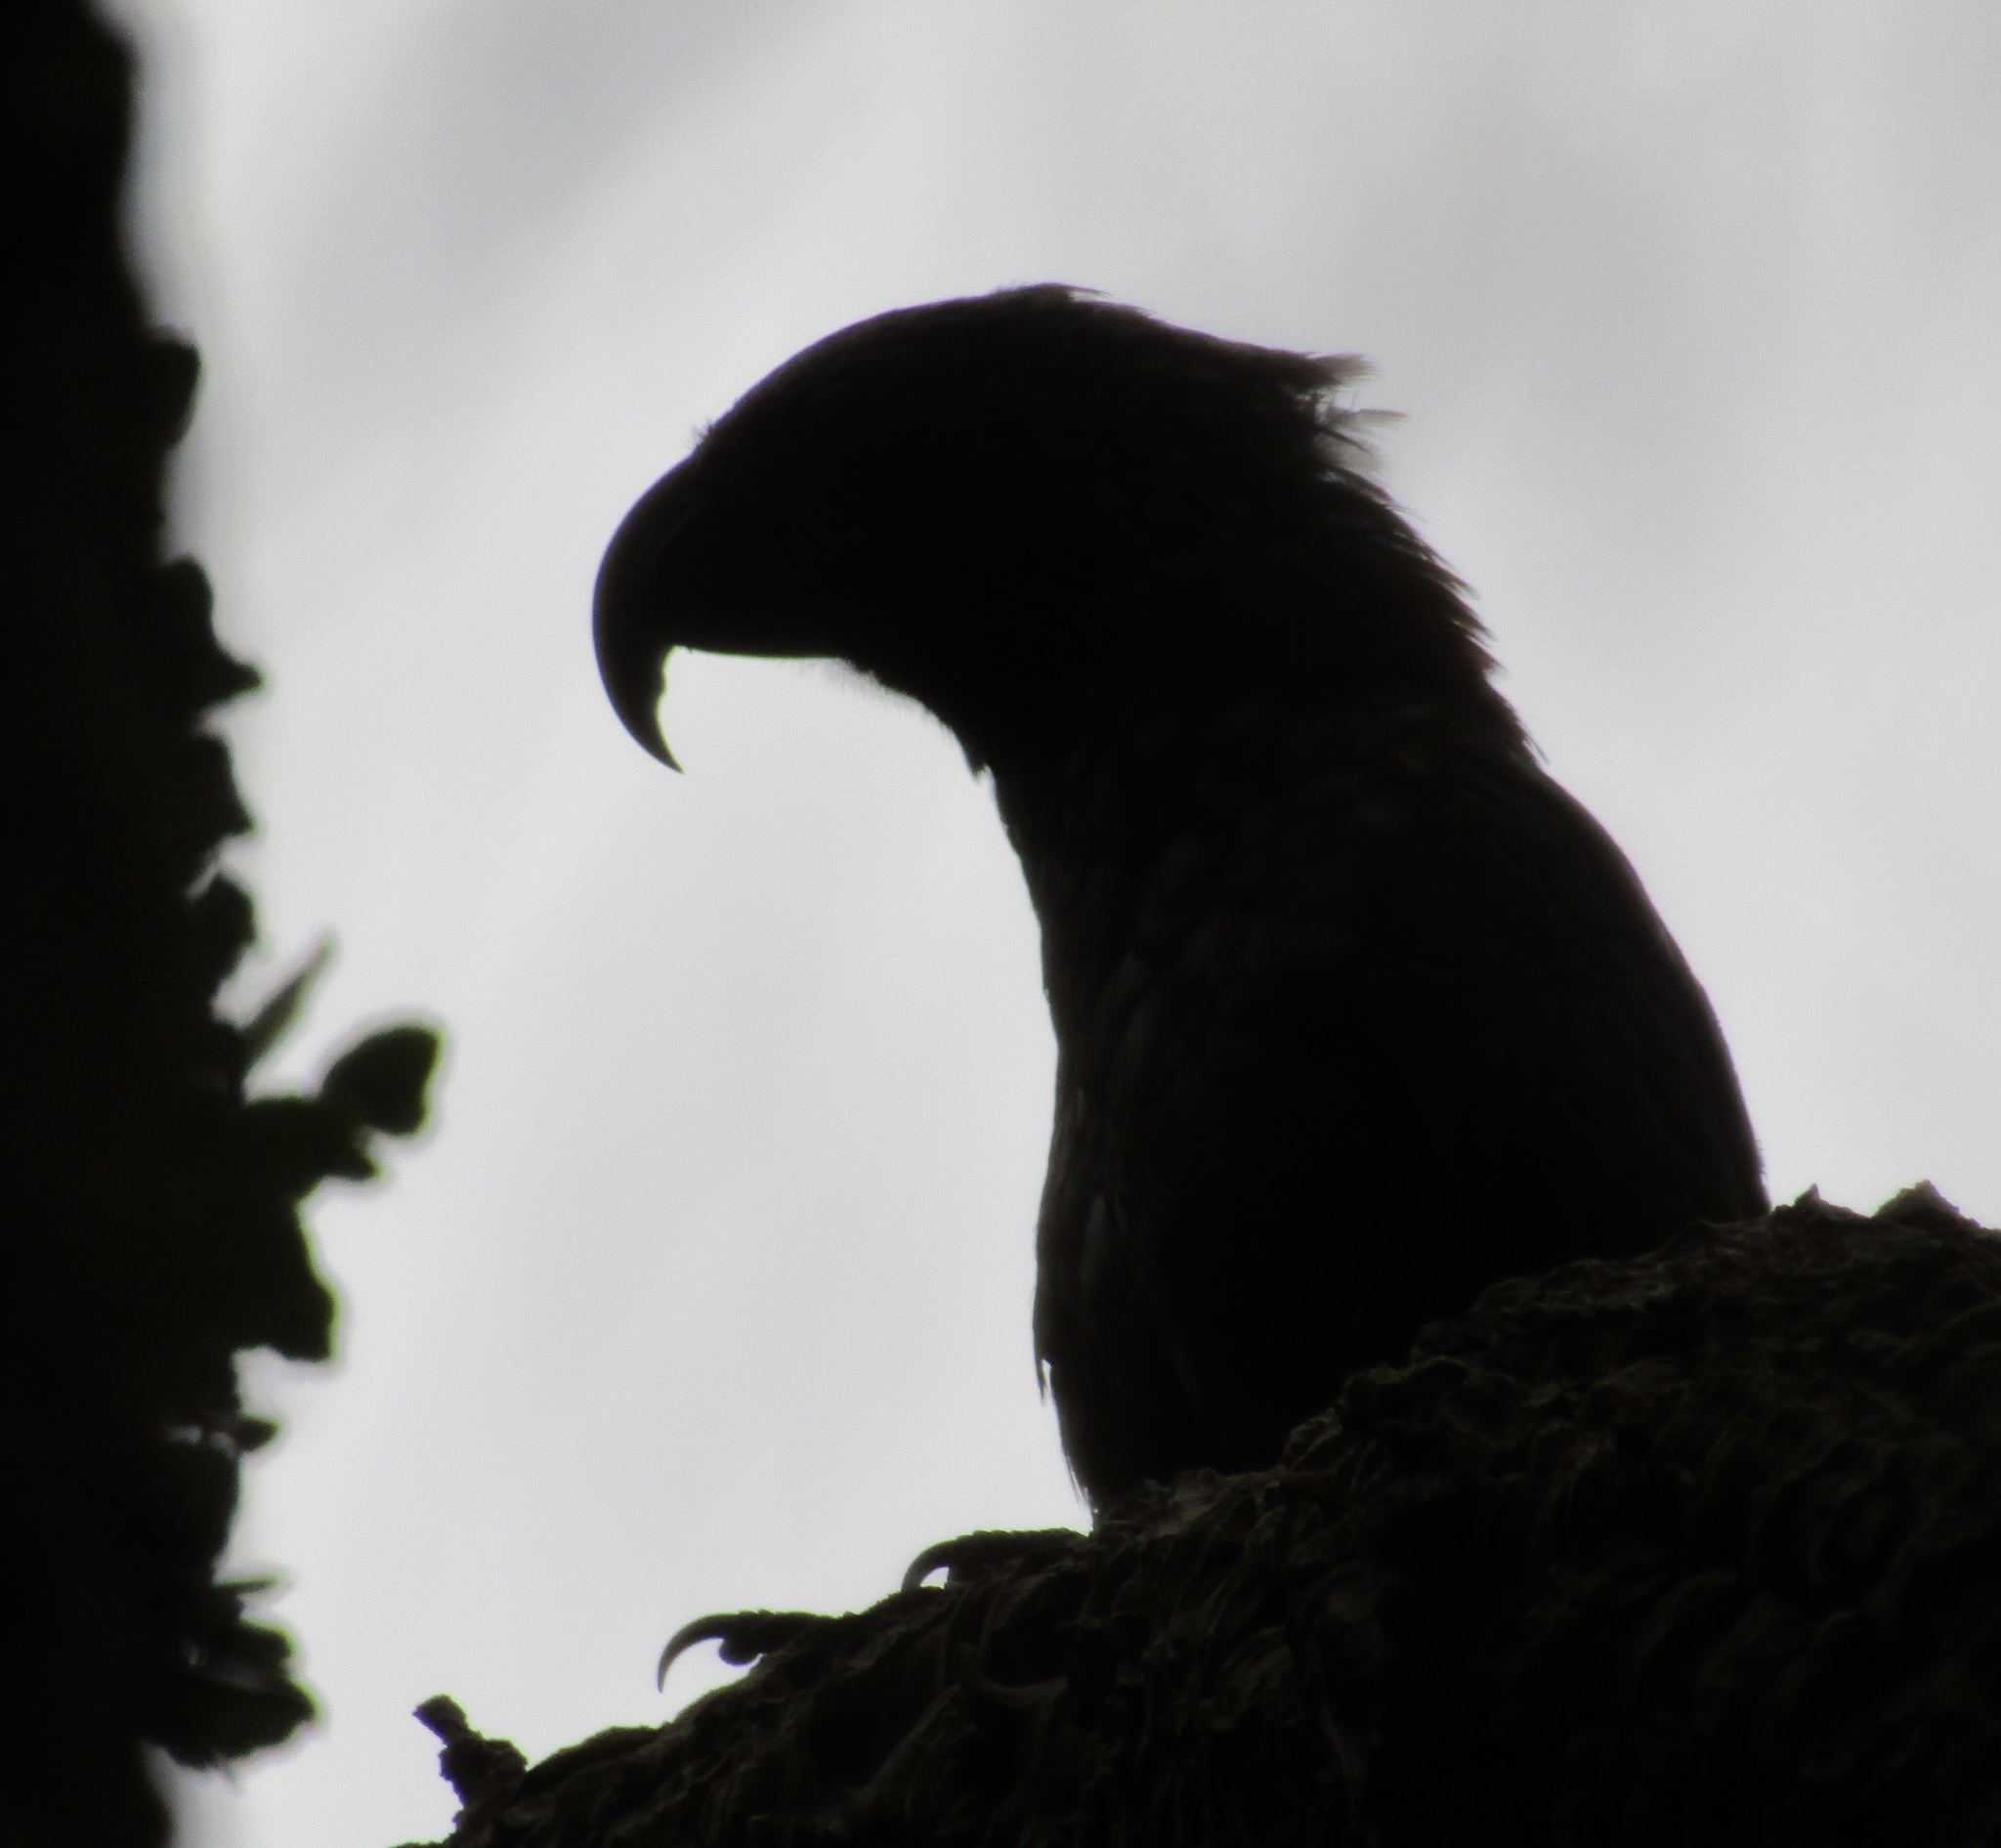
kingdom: Animalia
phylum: Chordata
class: Aves
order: Psittaciformes
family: Psittacidae
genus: Nestor
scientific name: Nestor meridionalis
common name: New zealand kaka
